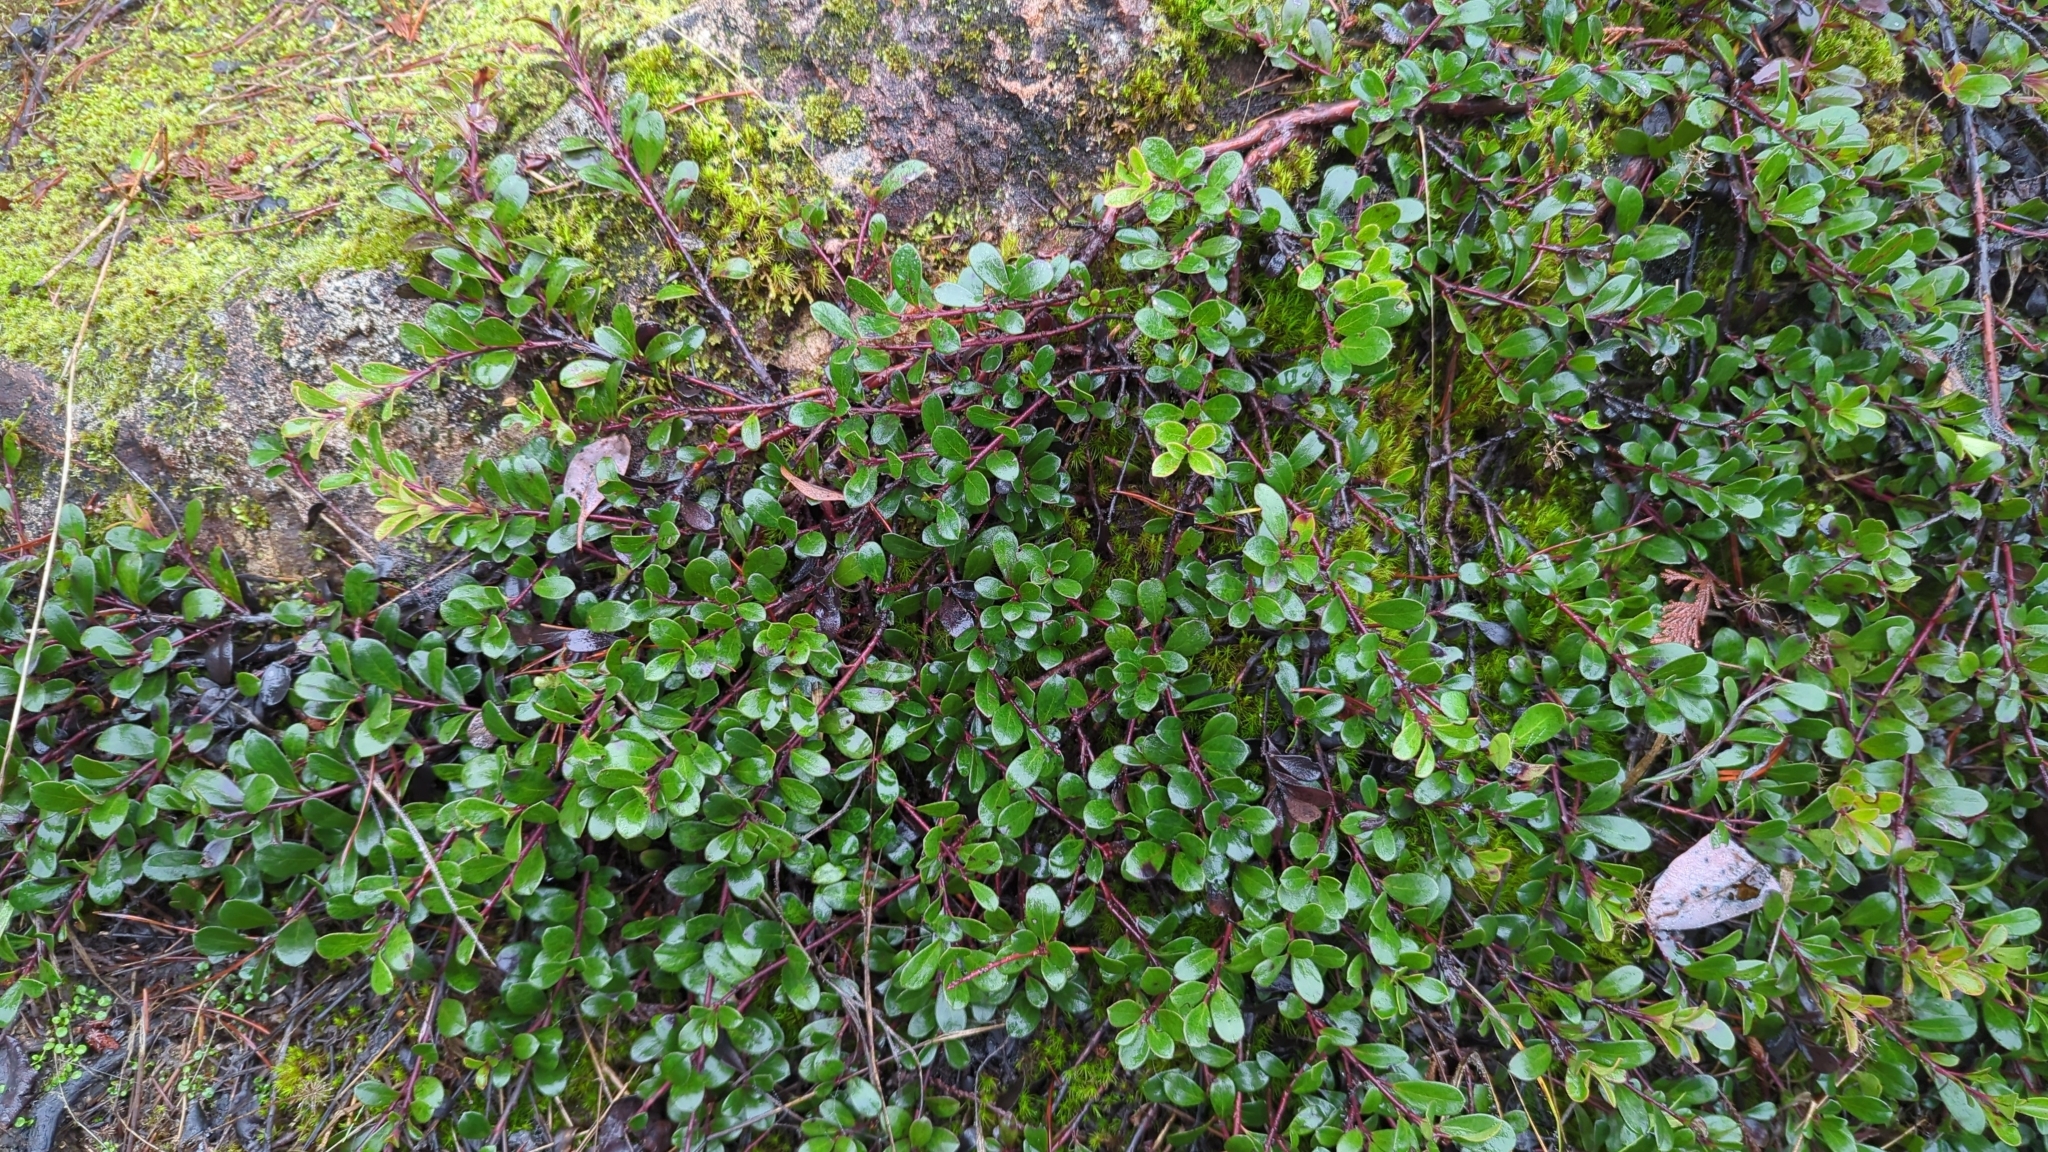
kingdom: Plantae
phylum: Tracheophyta
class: Magnoliopsida
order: Ericales
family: Ericaceae
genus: Arctostaphylos
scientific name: Arctostaphylos uva-ursi
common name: Bearberry
